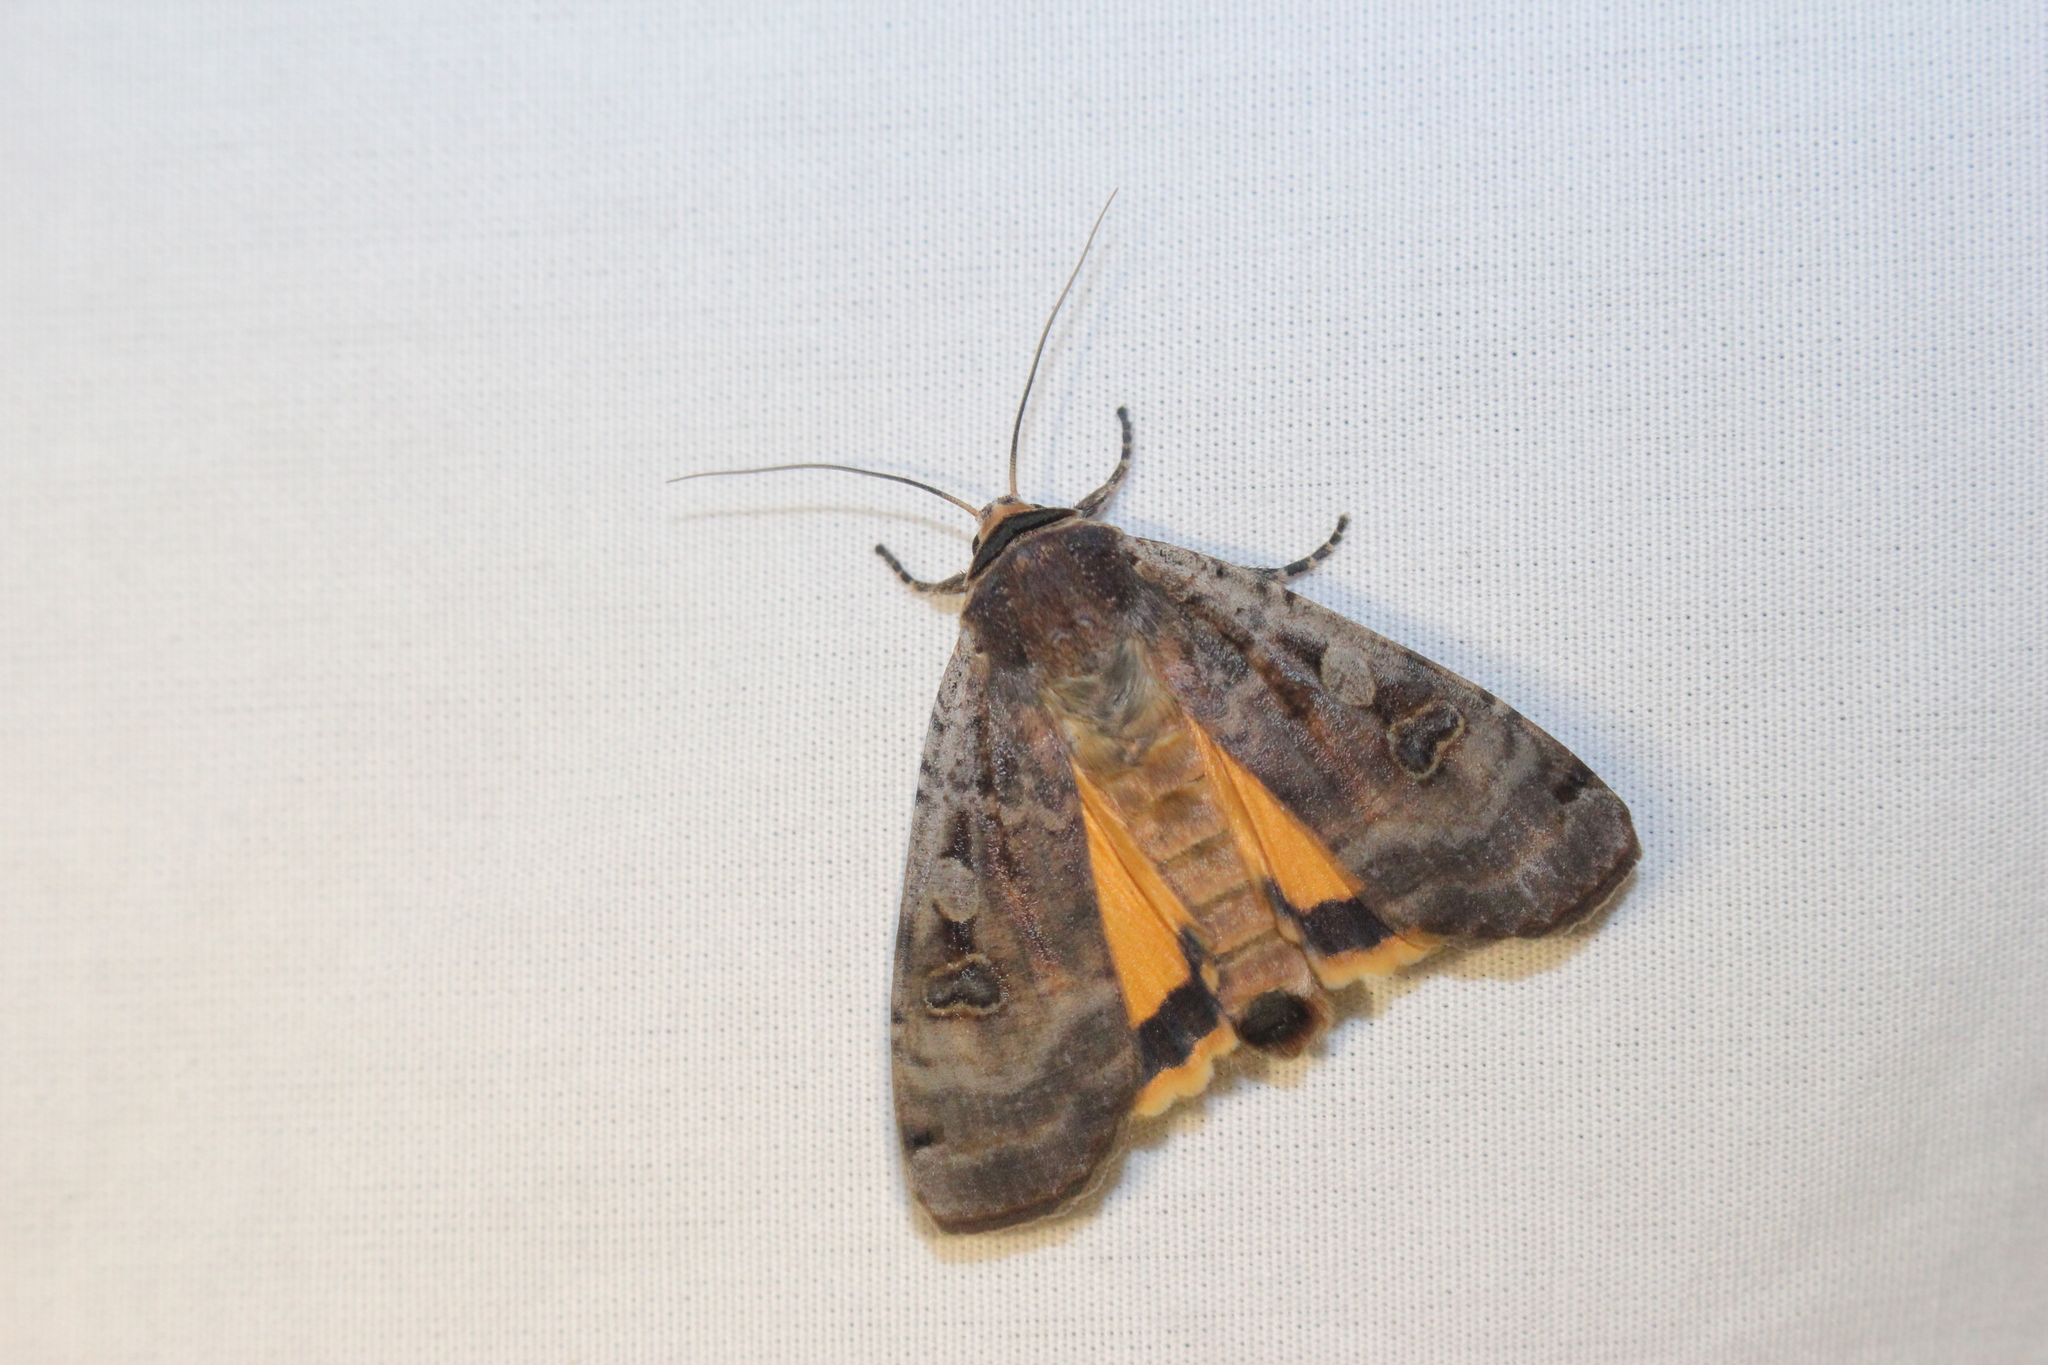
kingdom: Animalia
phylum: Arthropoda
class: Insecta
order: Lepidoptera
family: Noctuidae
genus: Noctua
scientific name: Noctua pronuba
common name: Large yellow underwing
